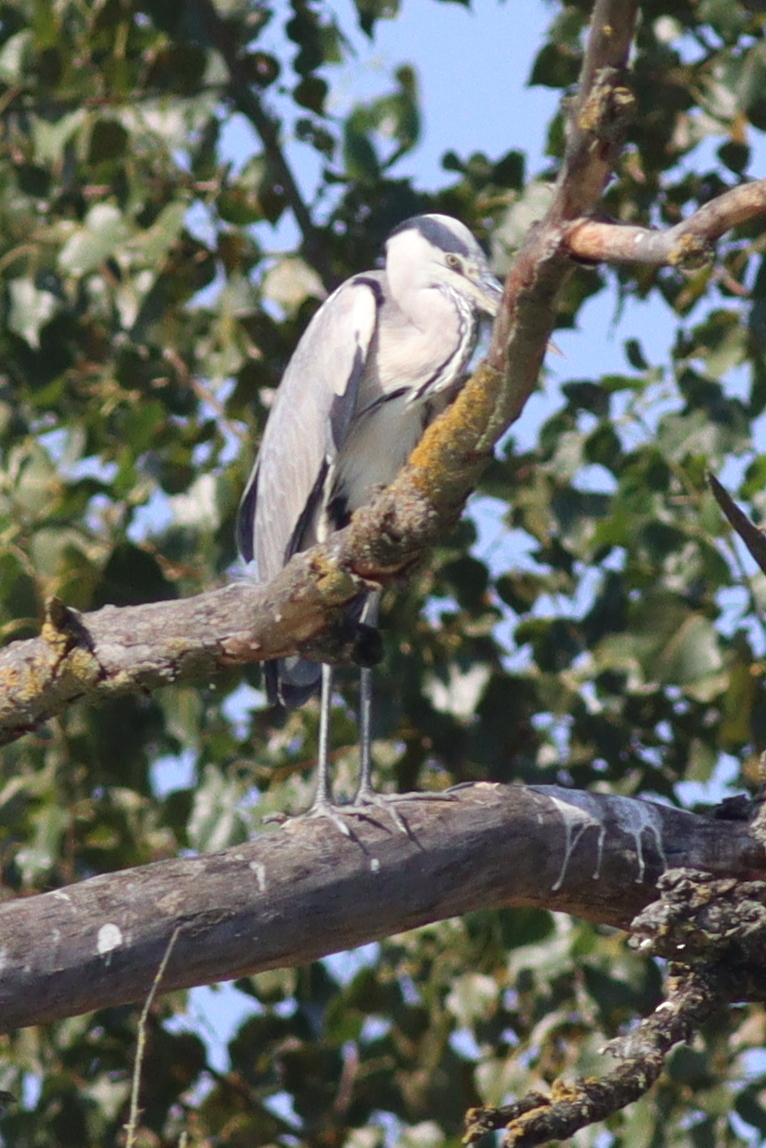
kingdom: Animalia
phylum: Chordata
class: Aves
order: Pelecaniformes
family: Ardeidae
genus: Ardea
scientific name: Ardea cinerea
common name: Grey heron
